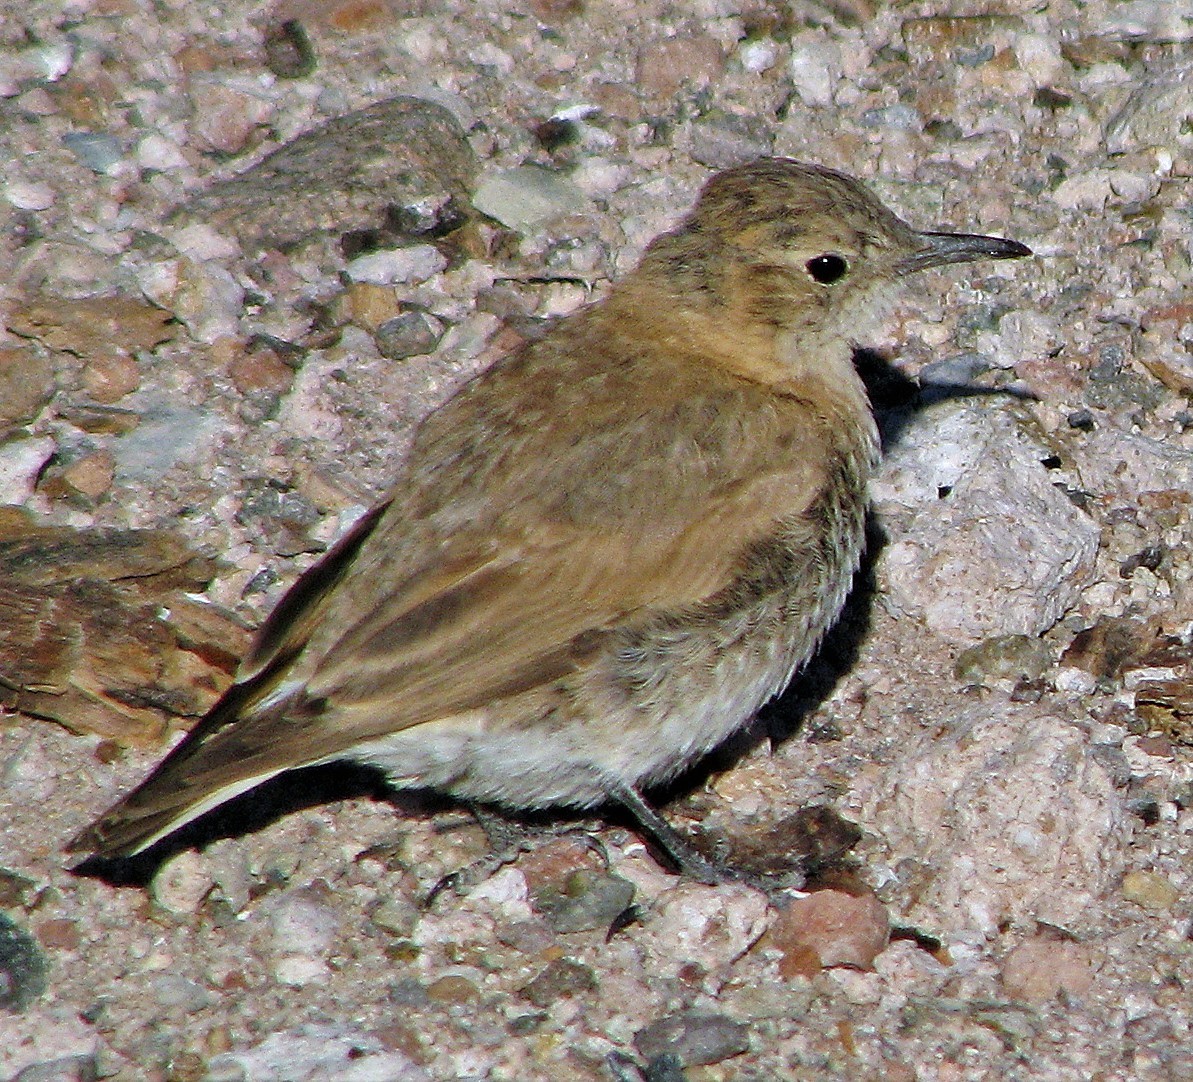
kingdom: Animalia
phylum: Chordata
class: Aves
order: Passeriformes
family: Furnariidae
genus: Geositta
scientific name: Geositta isabellina
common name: Creamy-rumped miner
